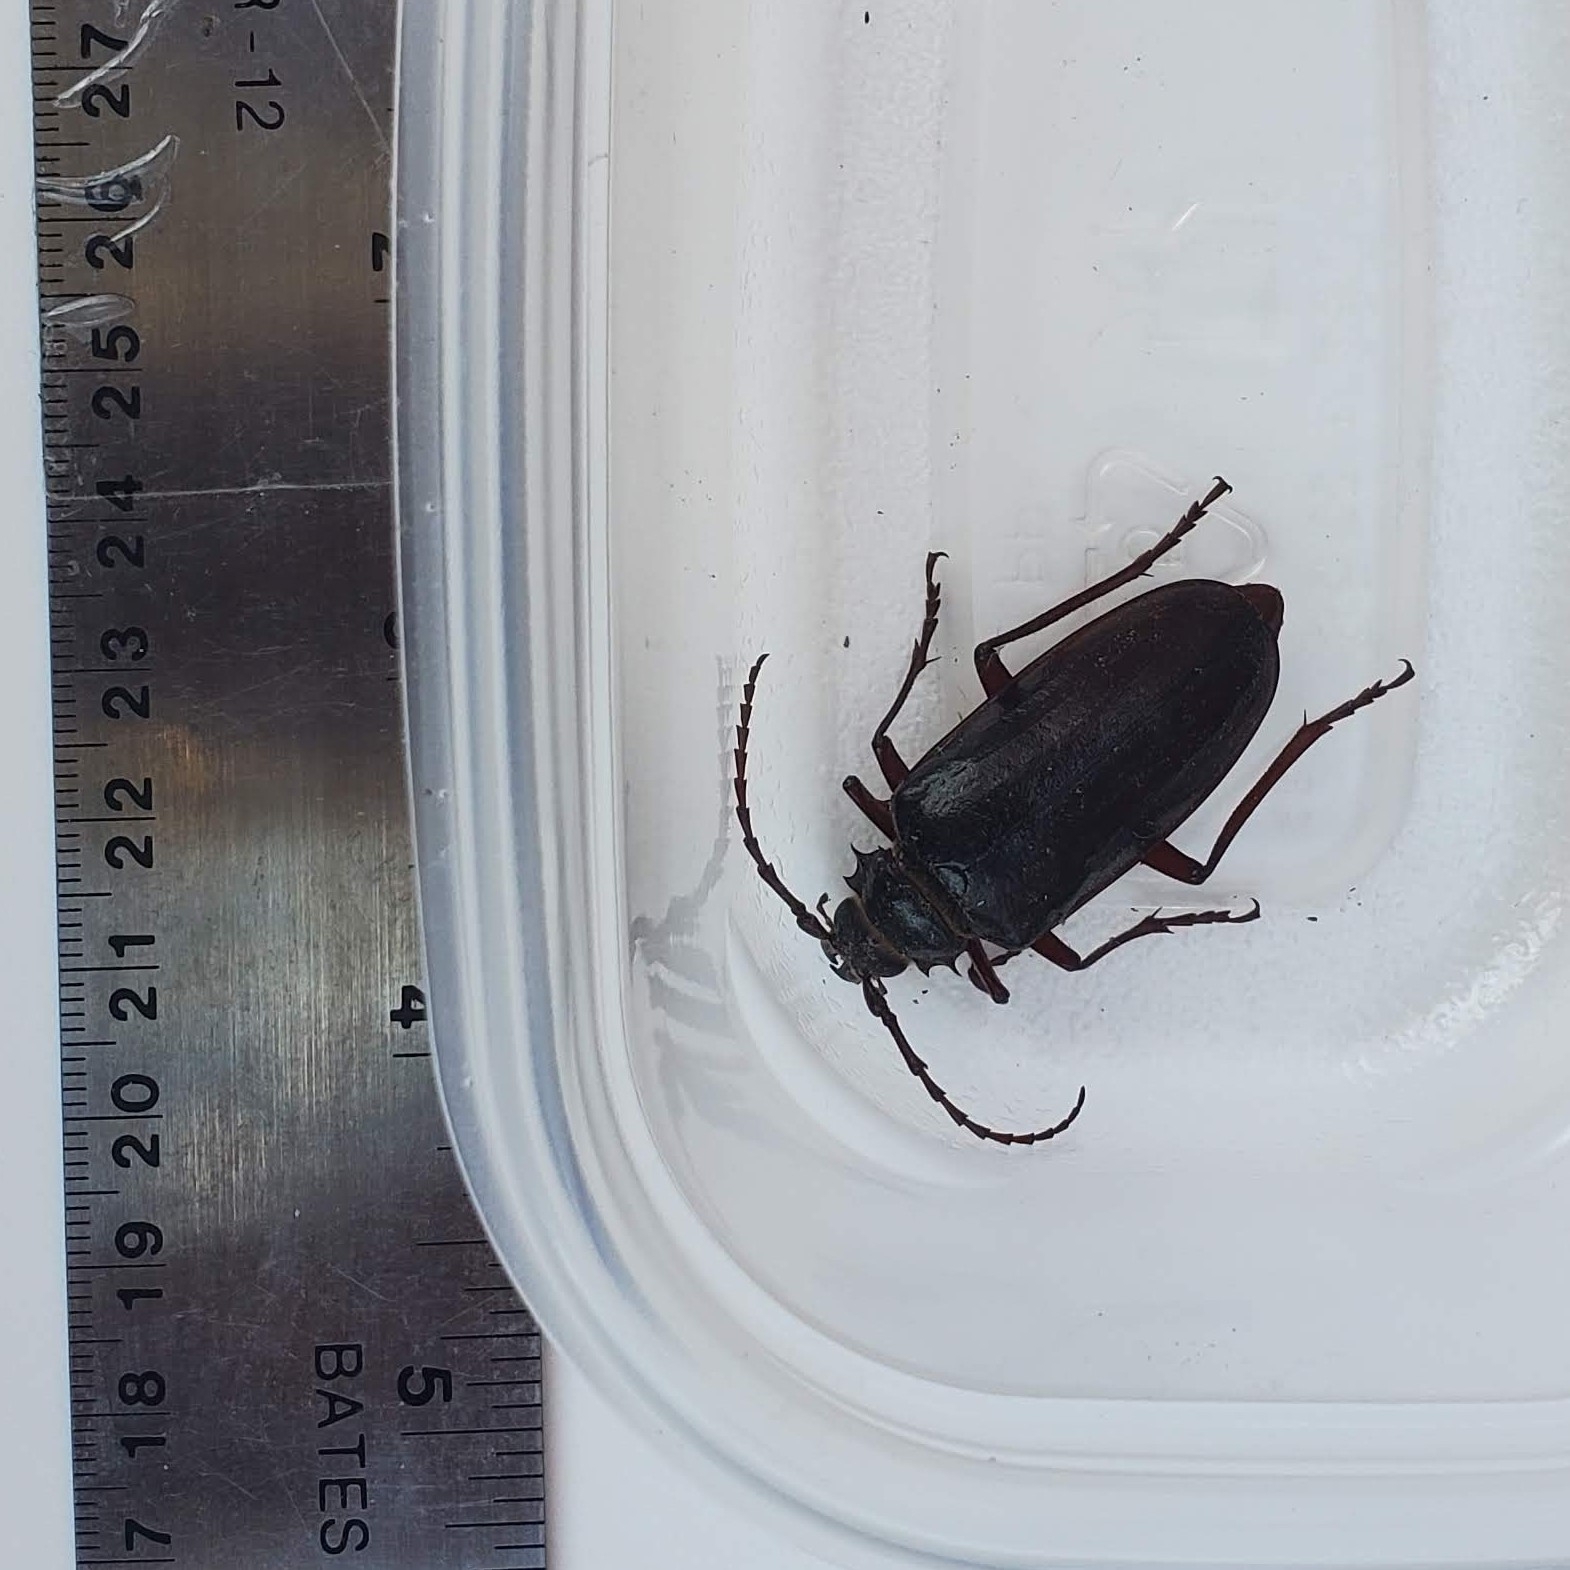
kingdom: Animalia
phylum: Arthropoda
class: Insecta
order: Coleoptera
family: Cerambycidae
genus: Prionus
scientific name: Prionus californicus
